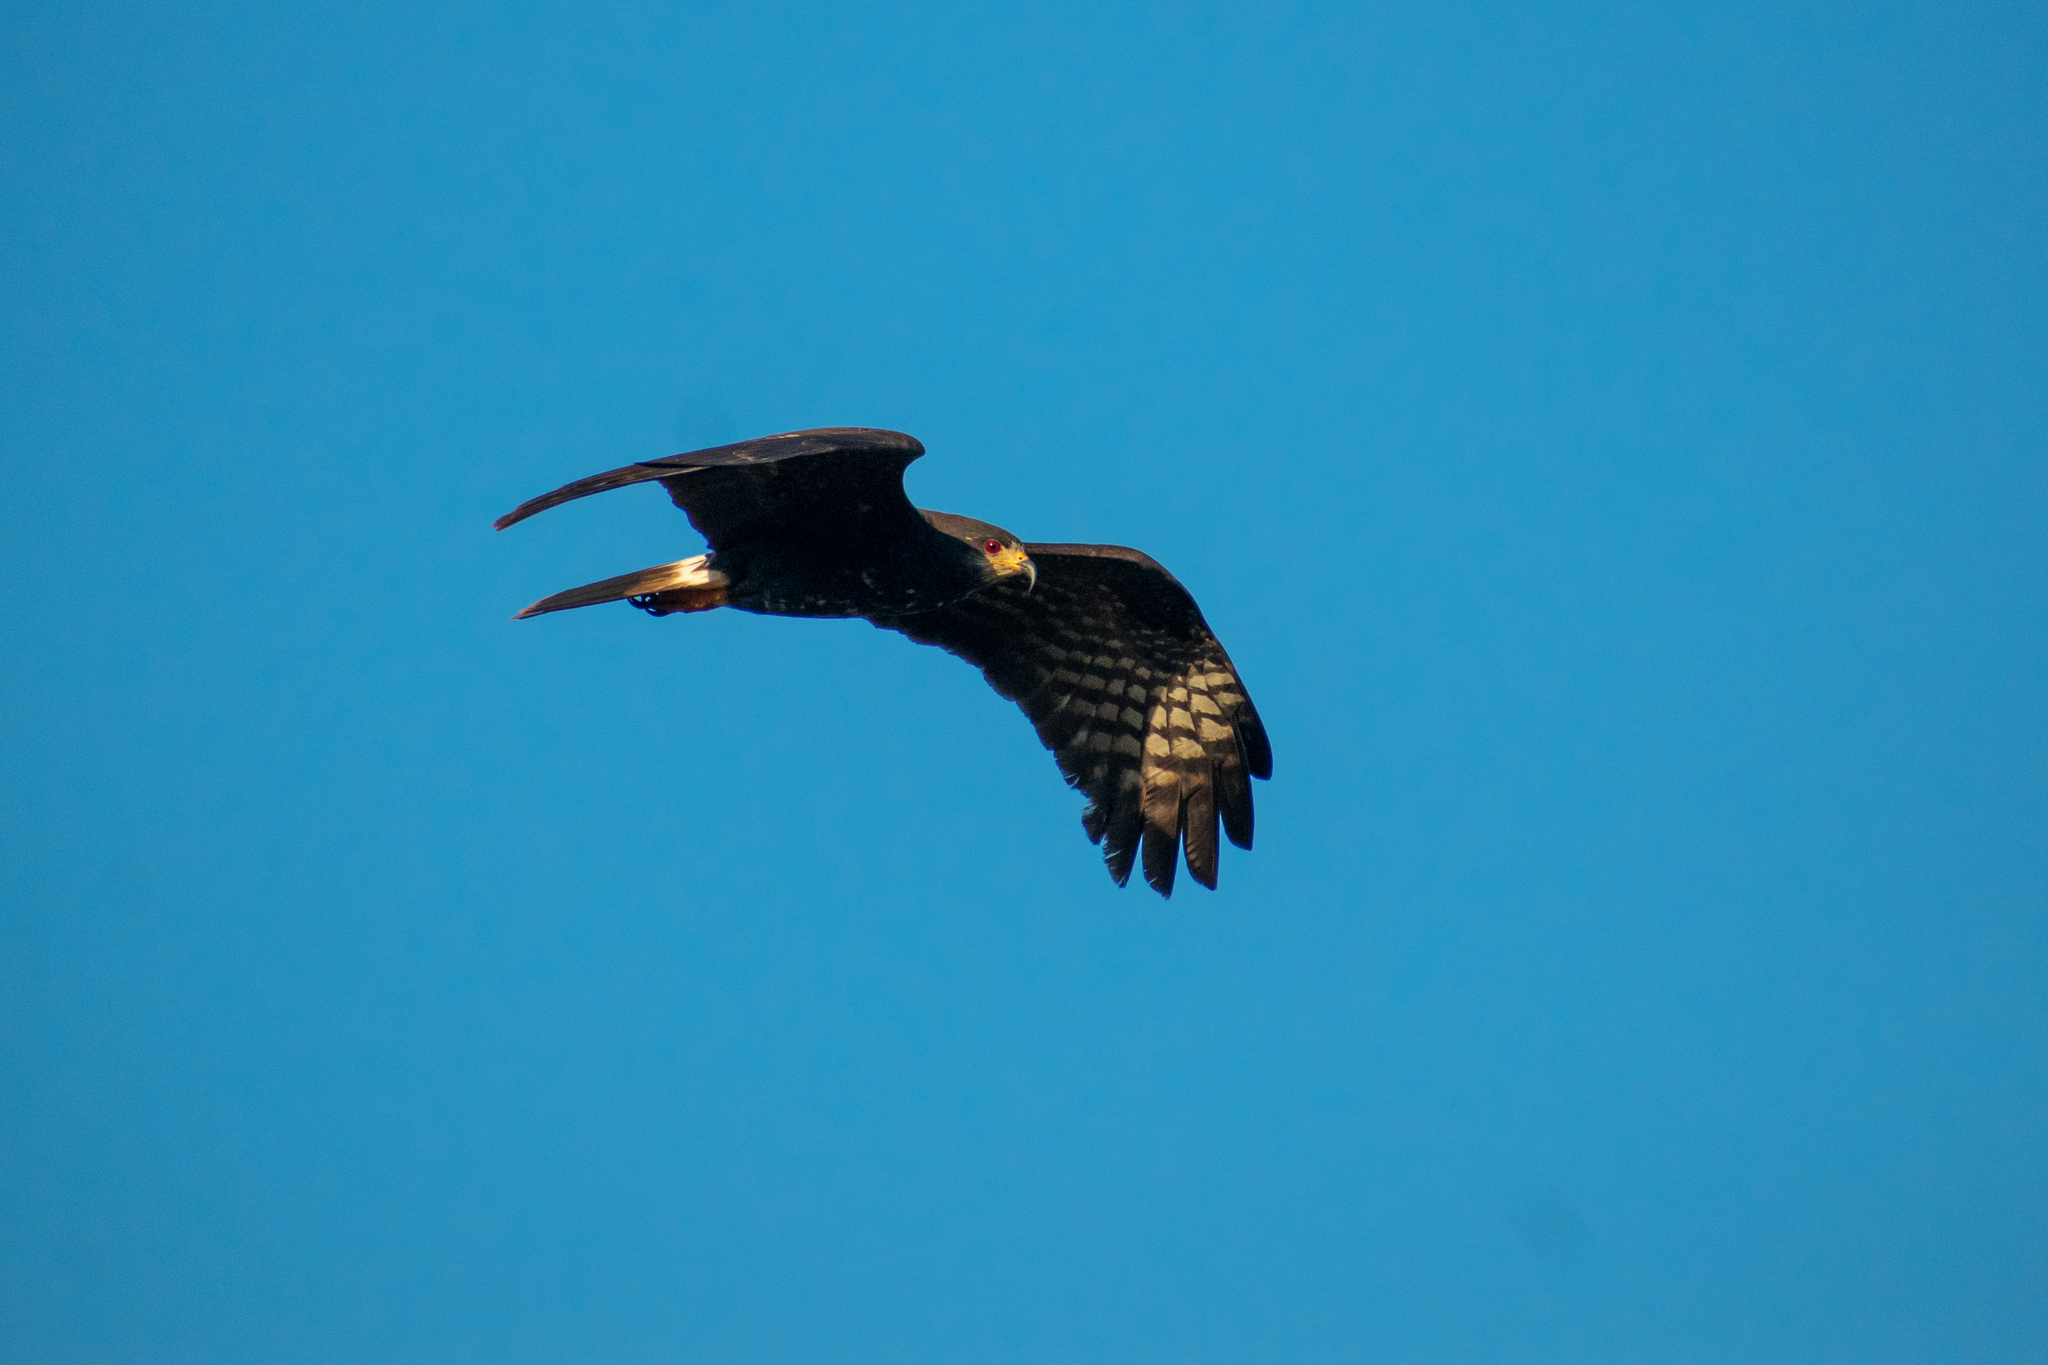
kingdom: Animalia
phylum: Chordata
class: Aves
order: Accipitriformes
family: Accipitridae
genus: Rostrhamus
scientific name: Rostrhamus sociabilis
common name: Snail kite
